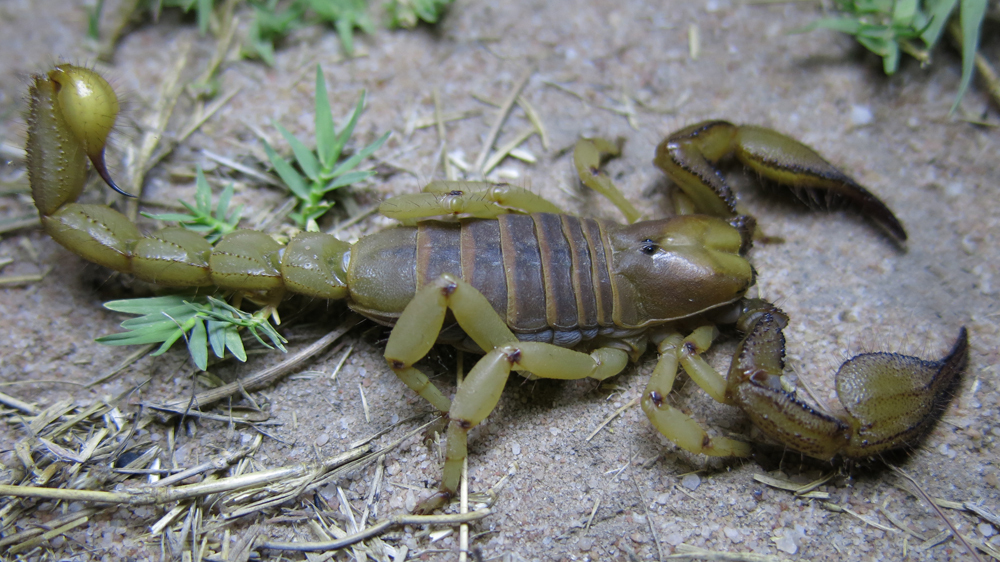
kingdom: Animalia
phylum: Arthropoda
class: Arachnida
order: Scorpiones
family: Scorpionidae
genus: Opistophthalmus
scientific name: Opistophthalmus glabrifrons
